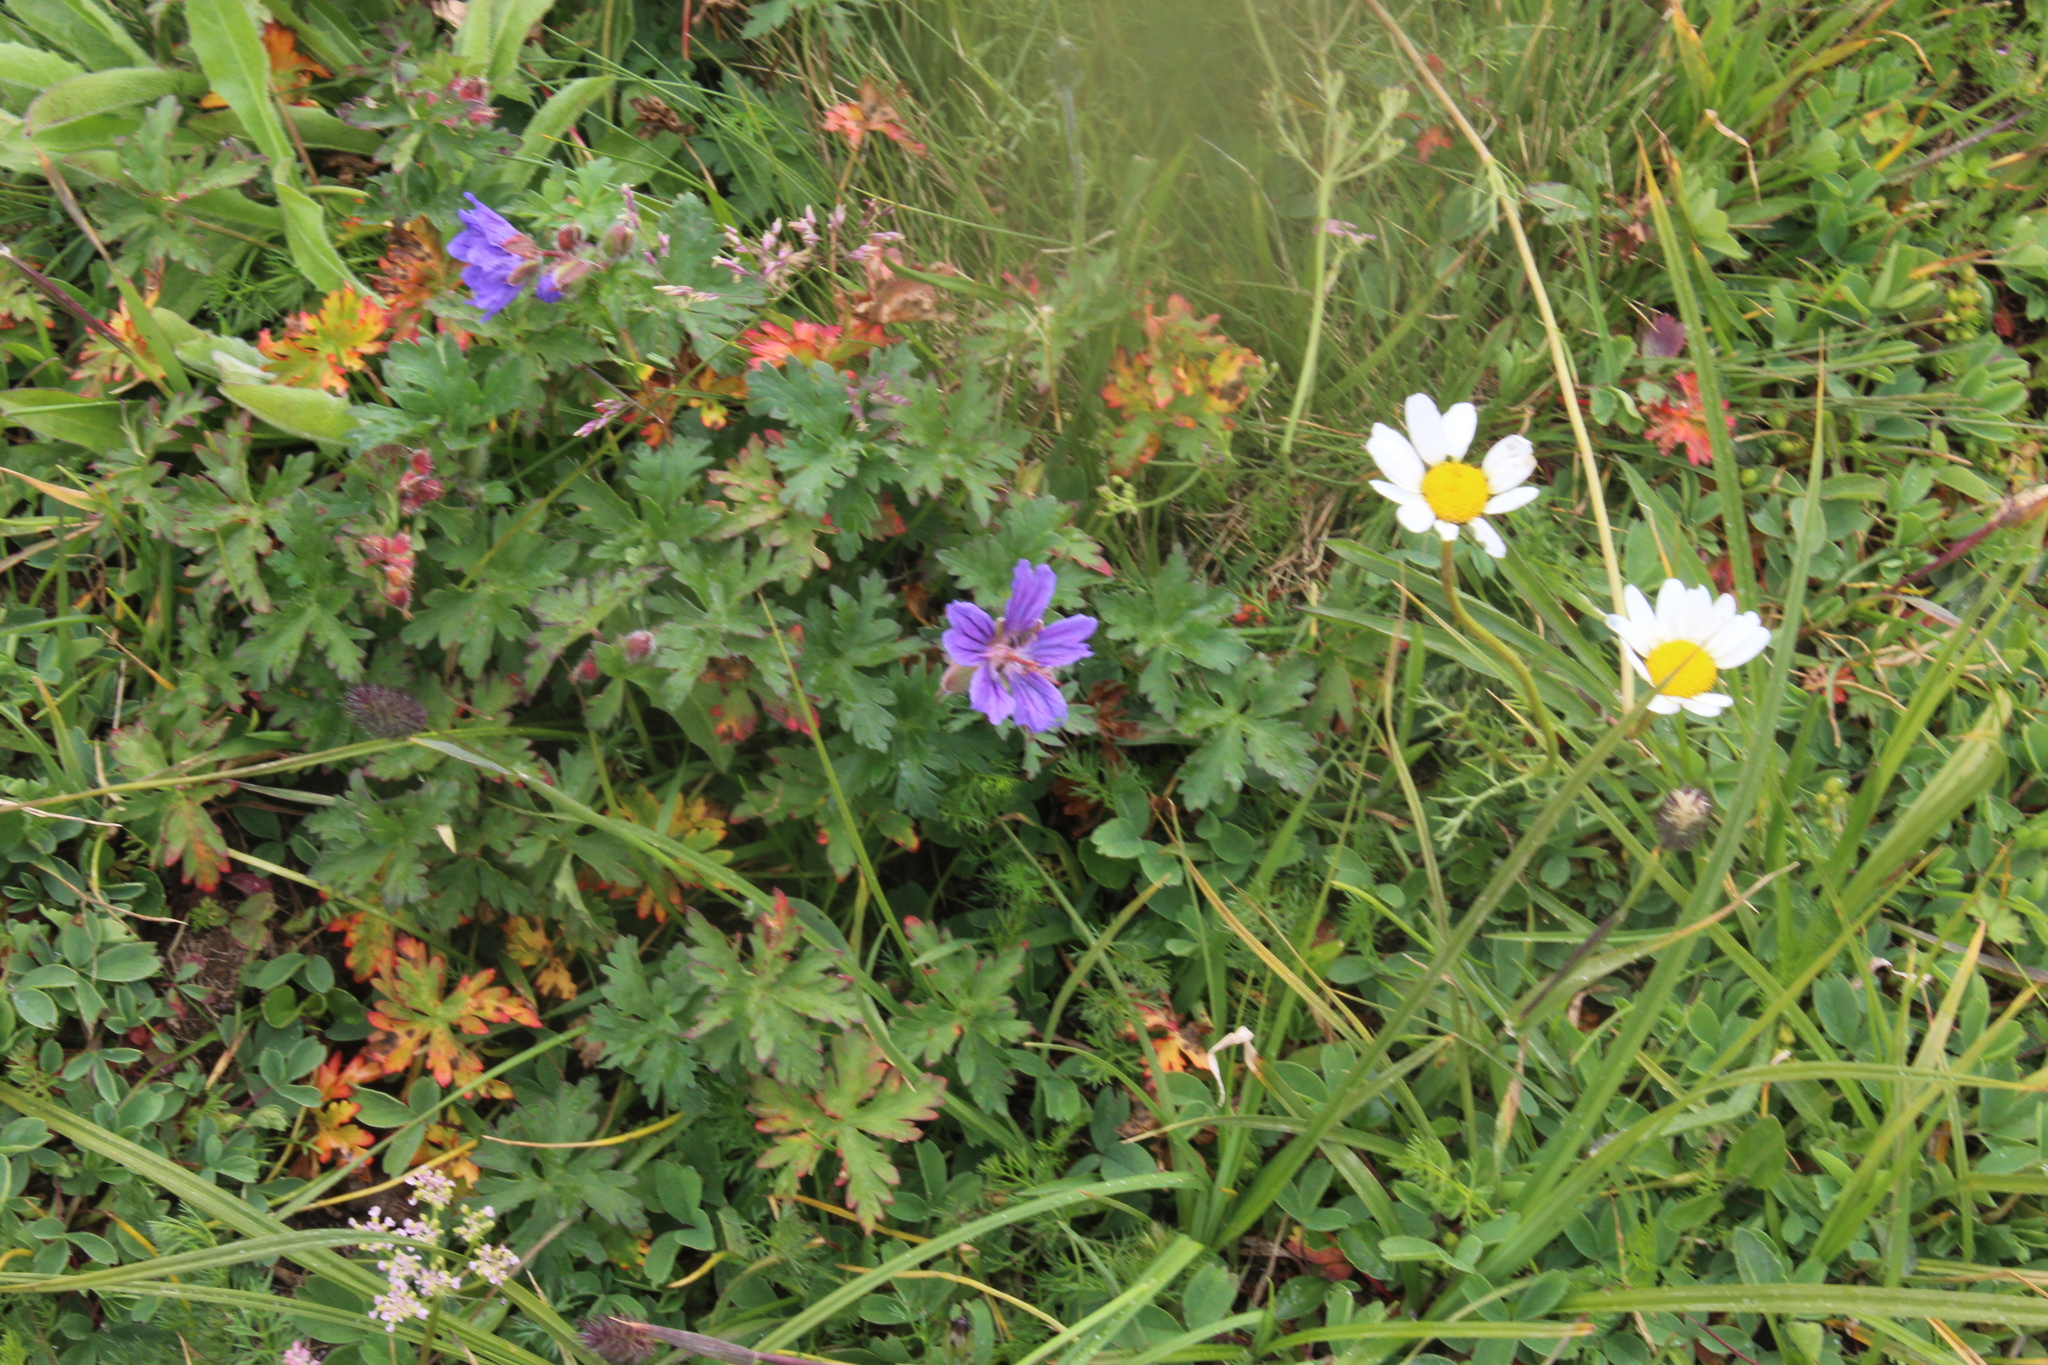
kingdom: Plantae
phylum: Tracheophyta
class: Magnoliopsida
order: Geraniales
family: Geraniaceae
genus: Geranium
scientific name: Geranium gymnocaulon
